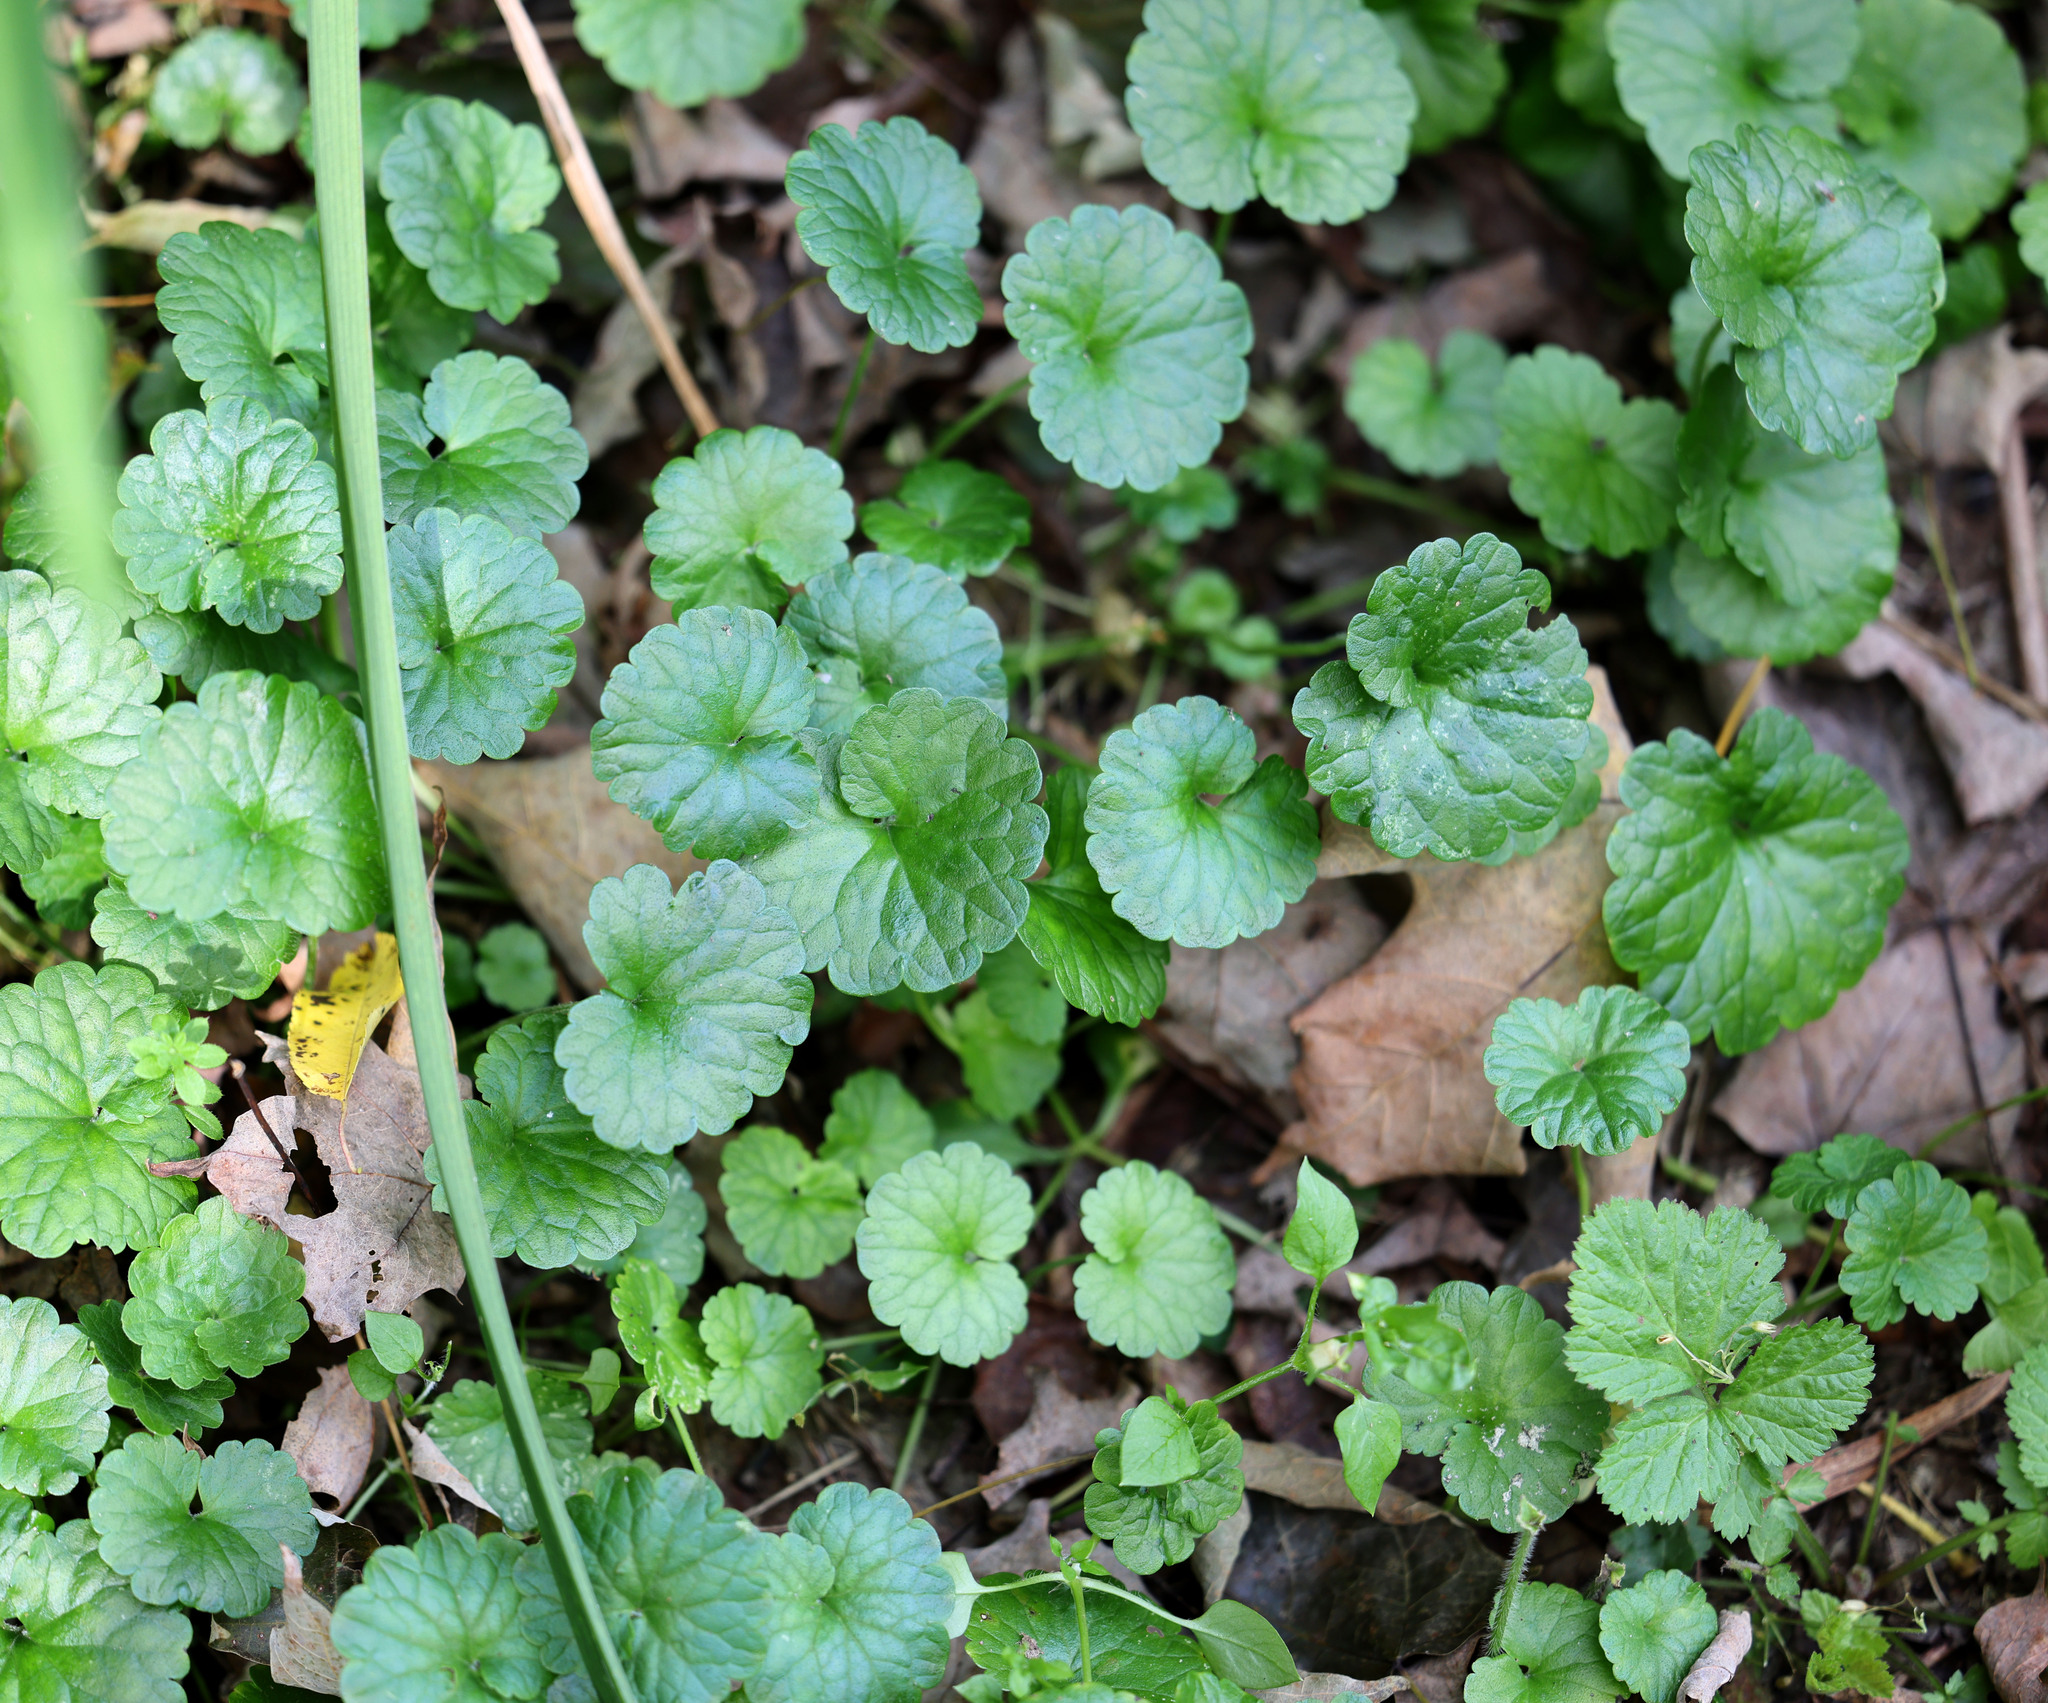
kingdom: Plantae
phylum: Tracheophyta
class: Magnoliopsida
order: Lamiales
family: Lamiaceae
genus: Glechoma
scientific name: Glechoma hederacea
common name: Ground ivy
